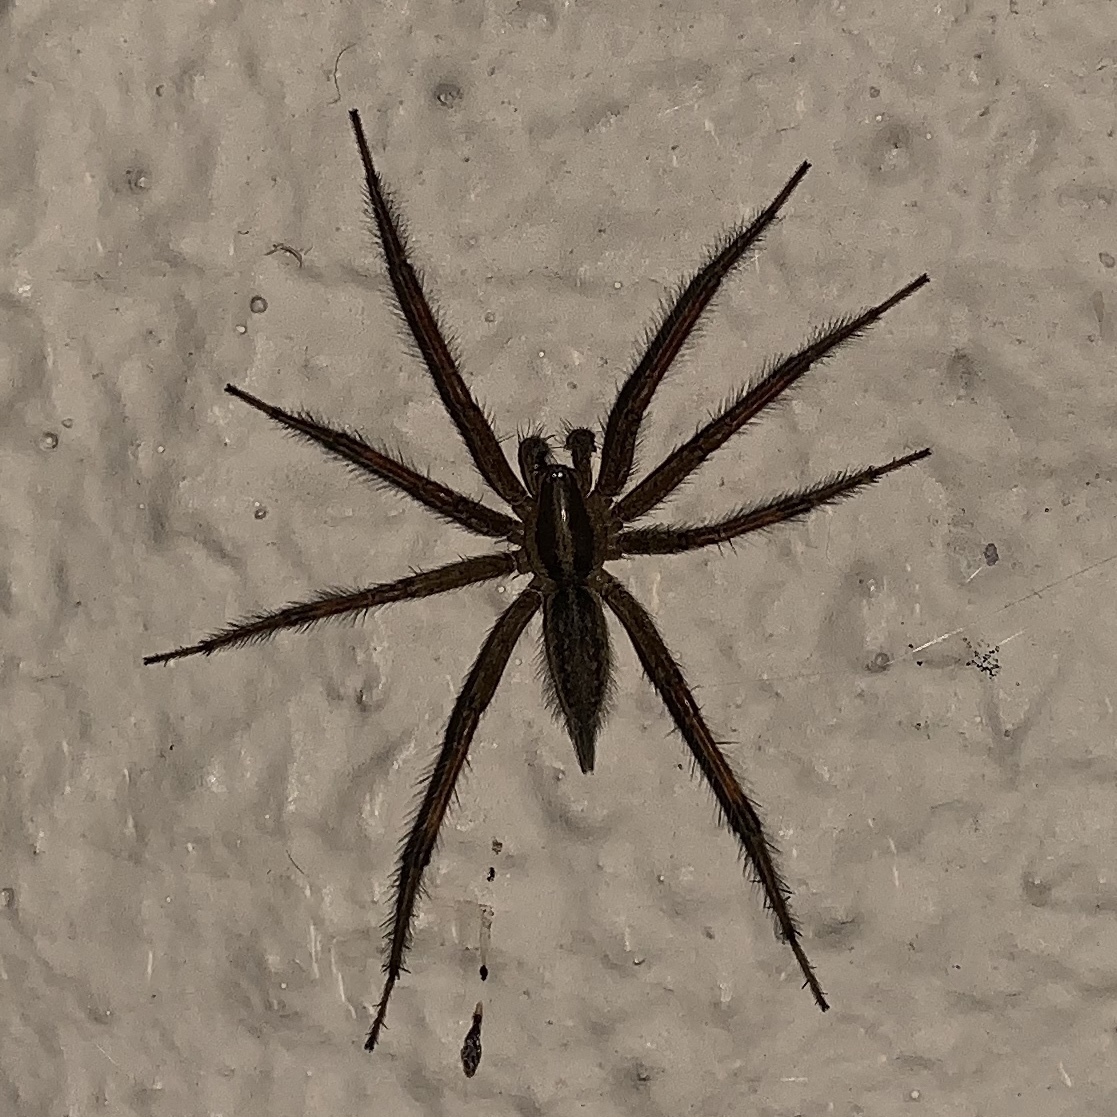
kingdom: Animalia
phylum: Arthropoda
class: Arachnida
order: Araneae
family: Agelenidae
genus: Agelenopsis
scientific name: Agelenopsis
